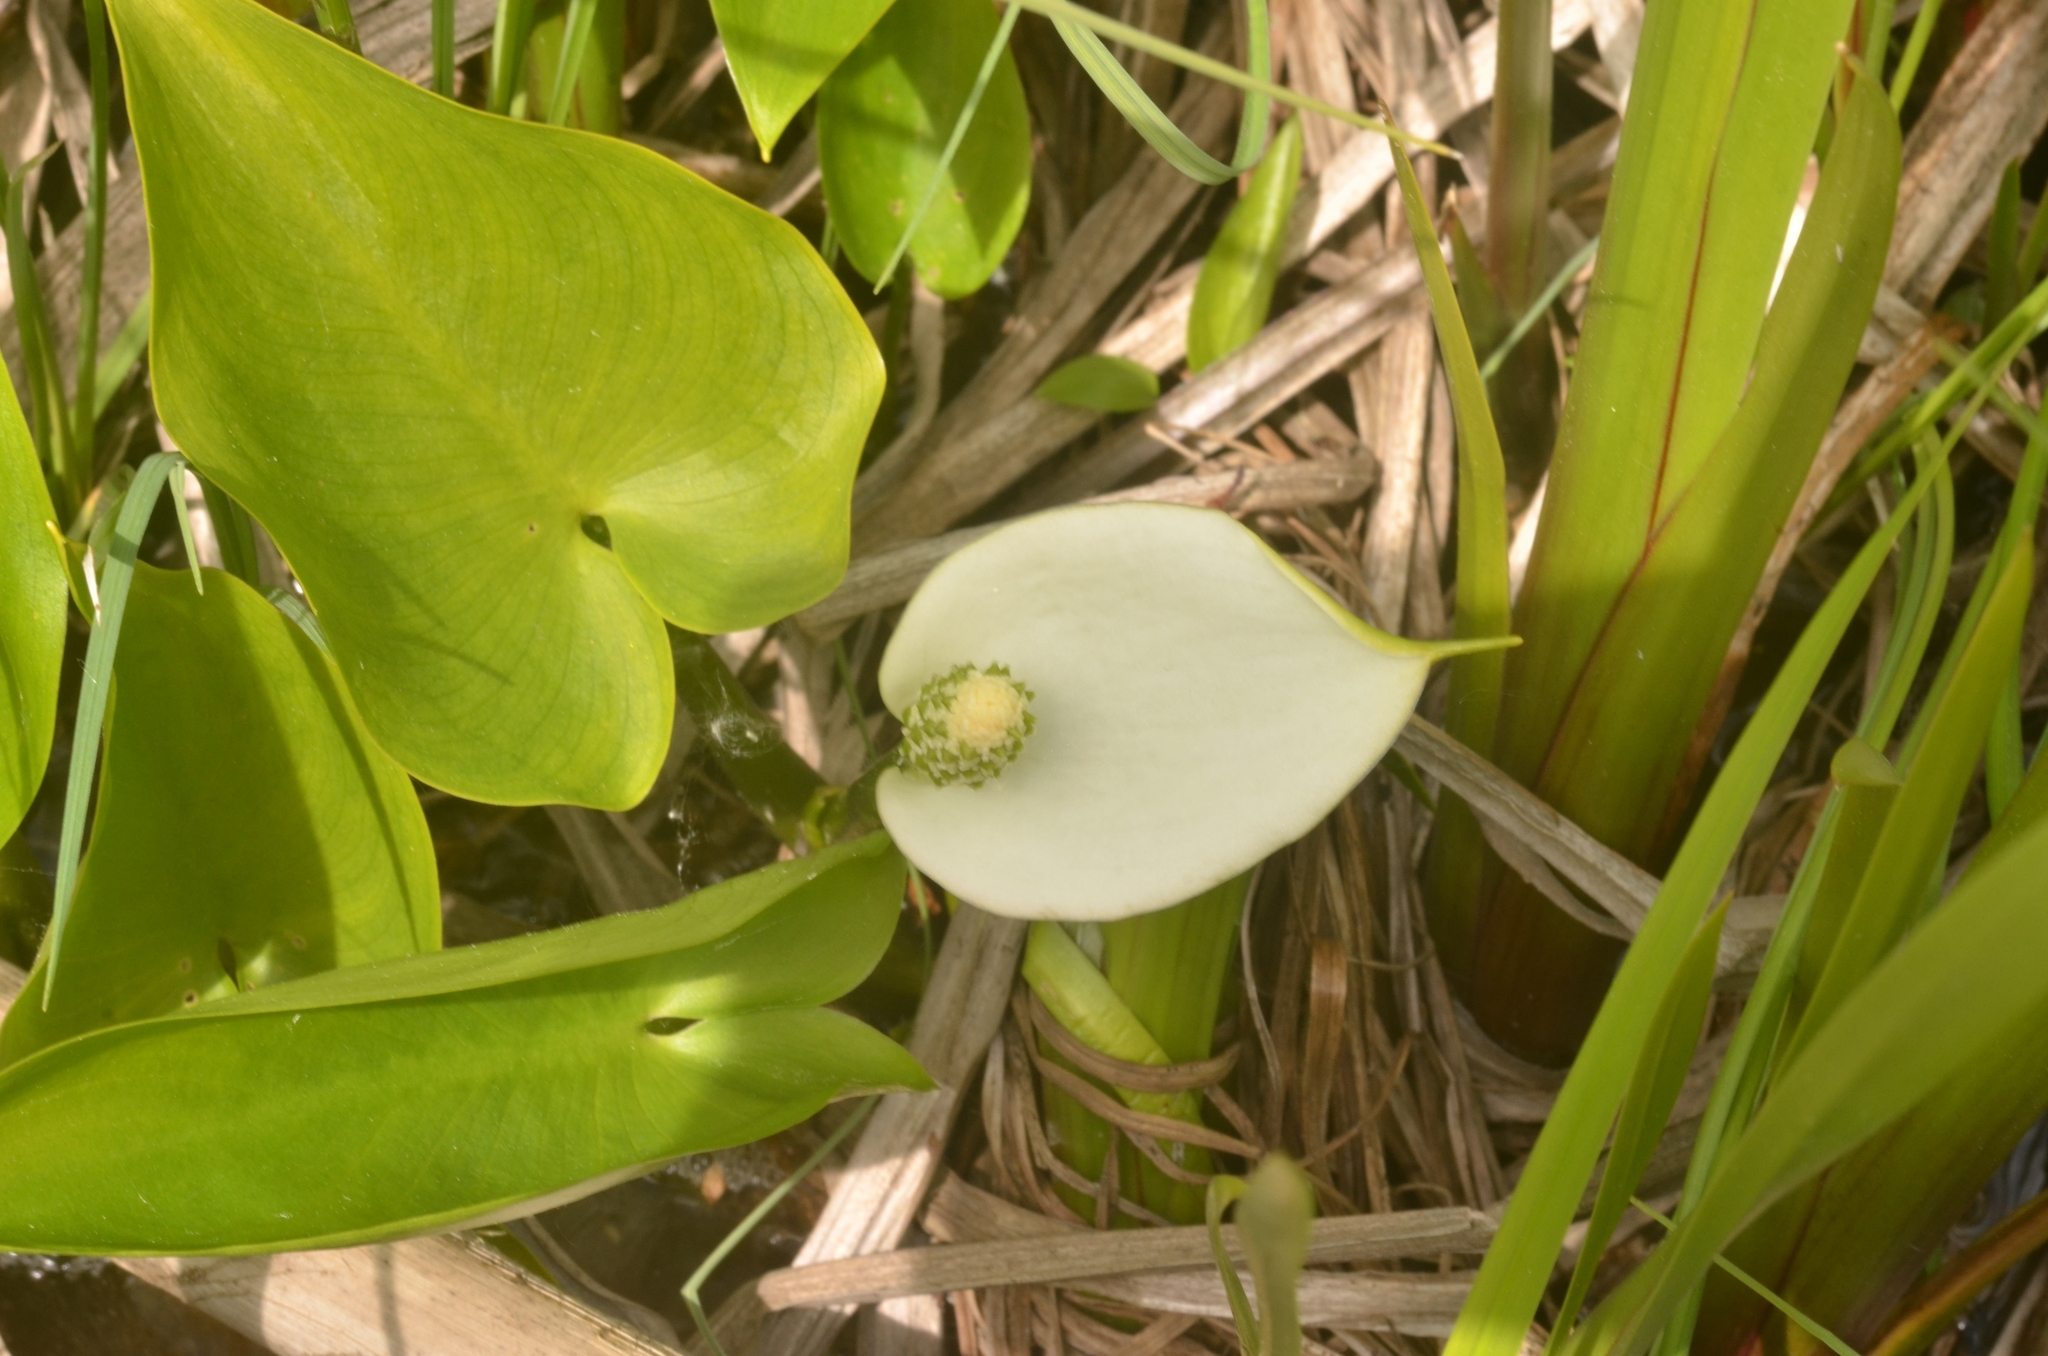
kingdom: Plantae
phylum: Tracheophyta
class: Liliopsida
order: Alismatales
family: Araceae
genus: Calla
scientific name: Calla palustris
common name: Bog arum
